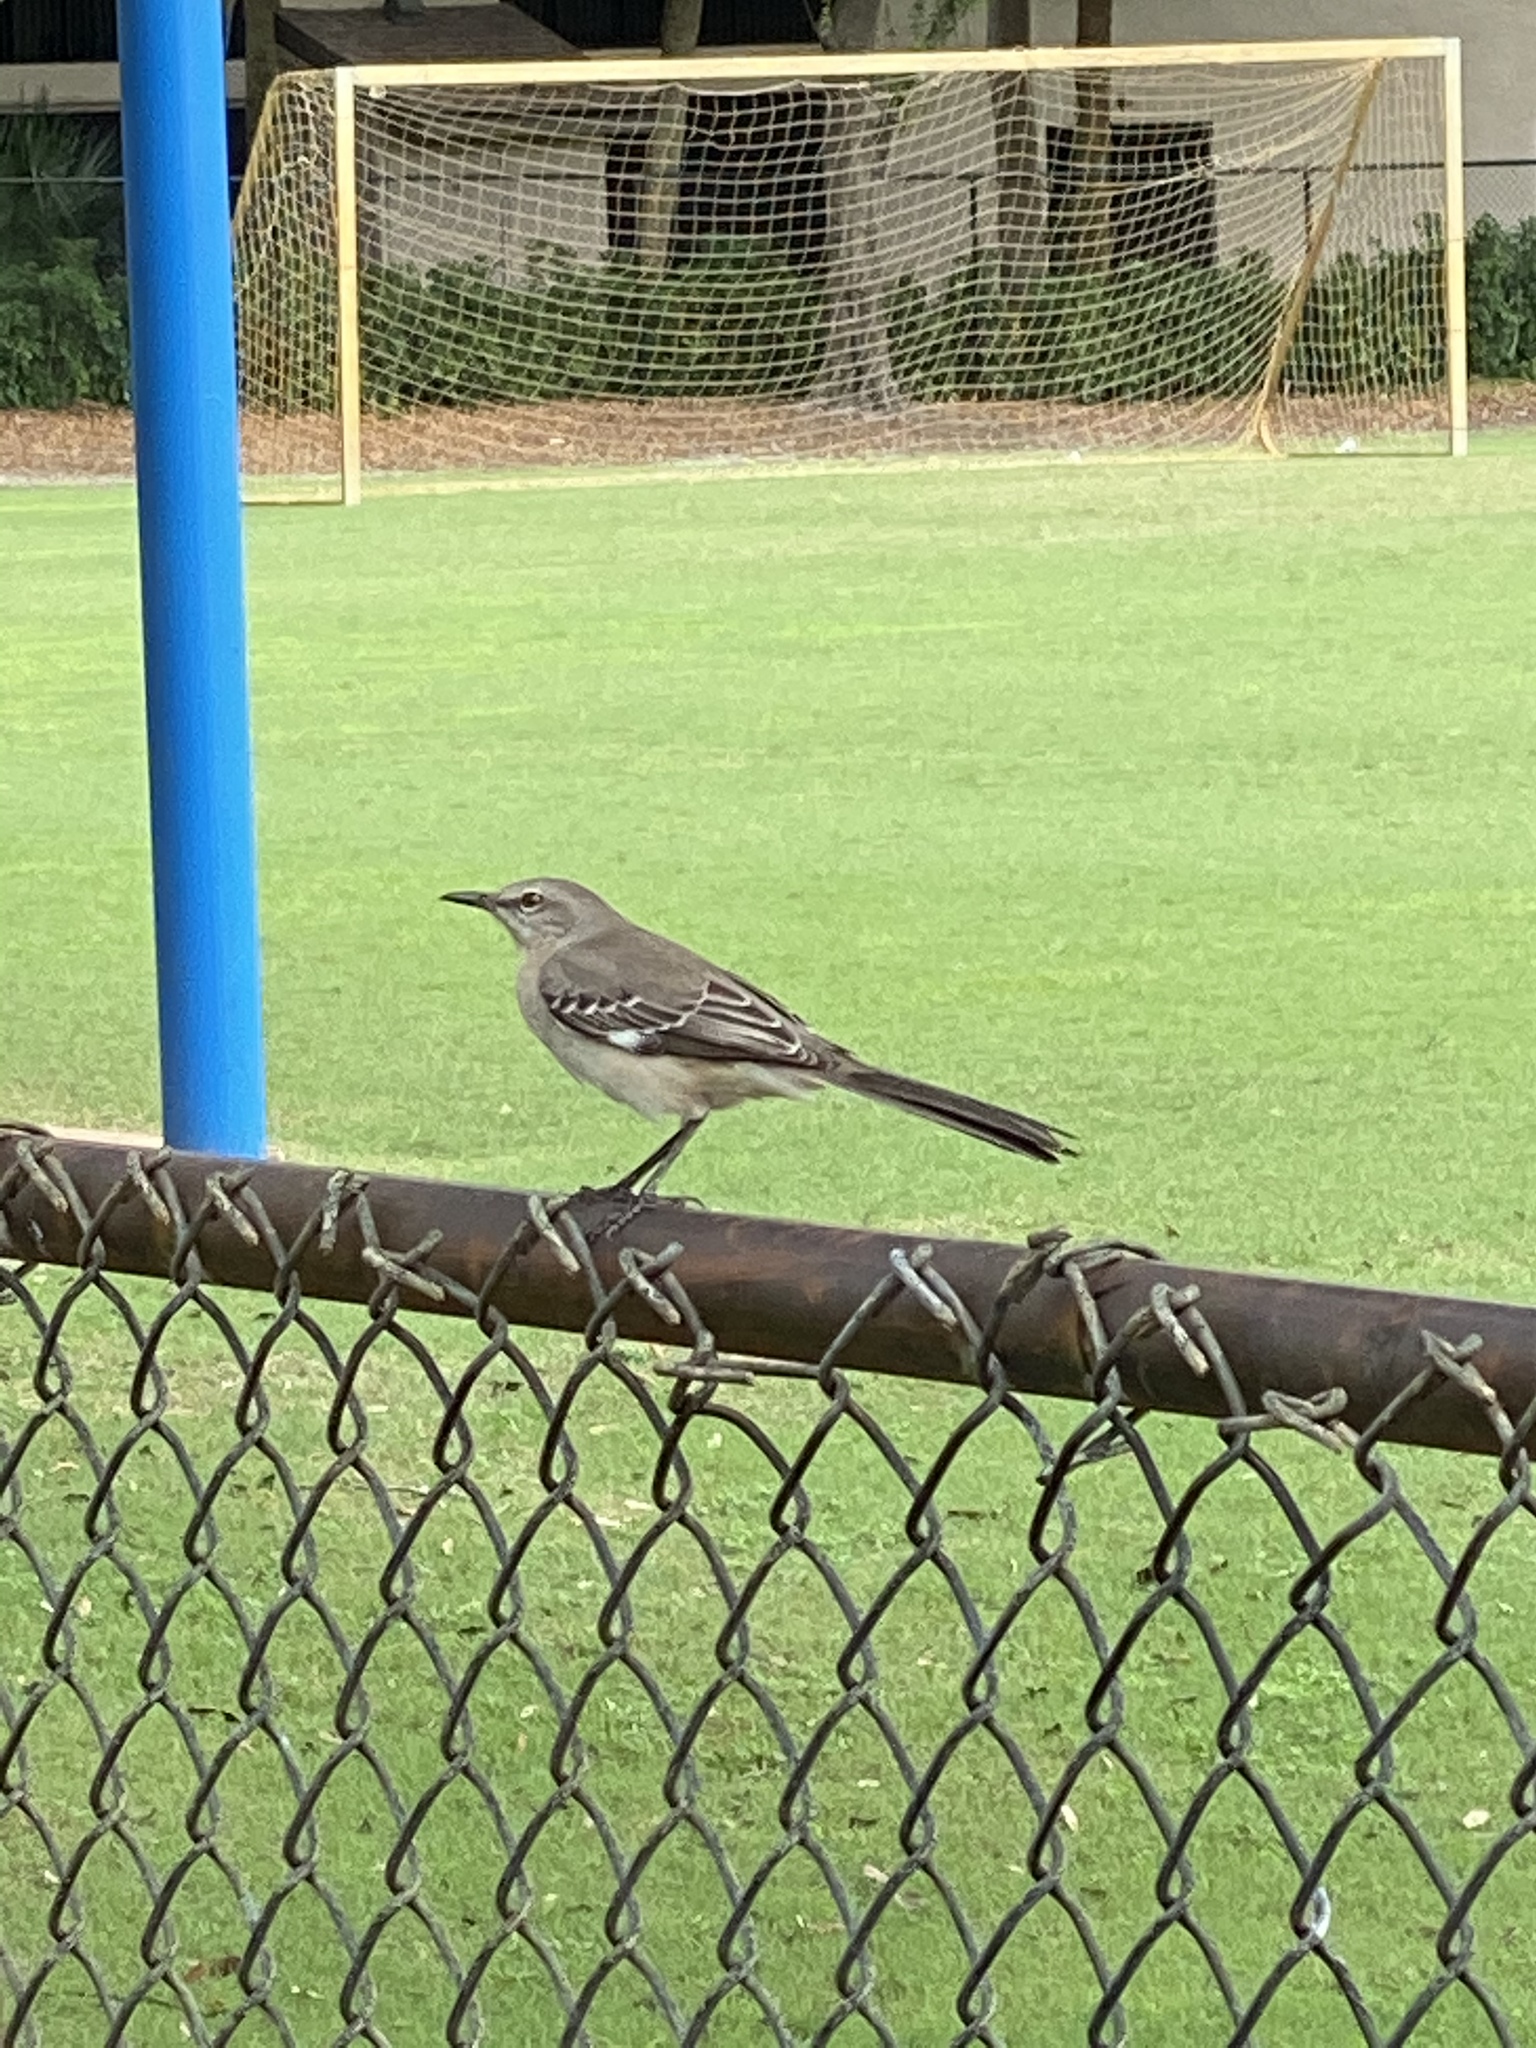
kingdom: Animalia
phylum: Chordata
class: Aves
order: Passeriformes
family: Mimidae
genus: Mimus
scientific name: Mimus polyglottos
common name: Northern mockingbird
